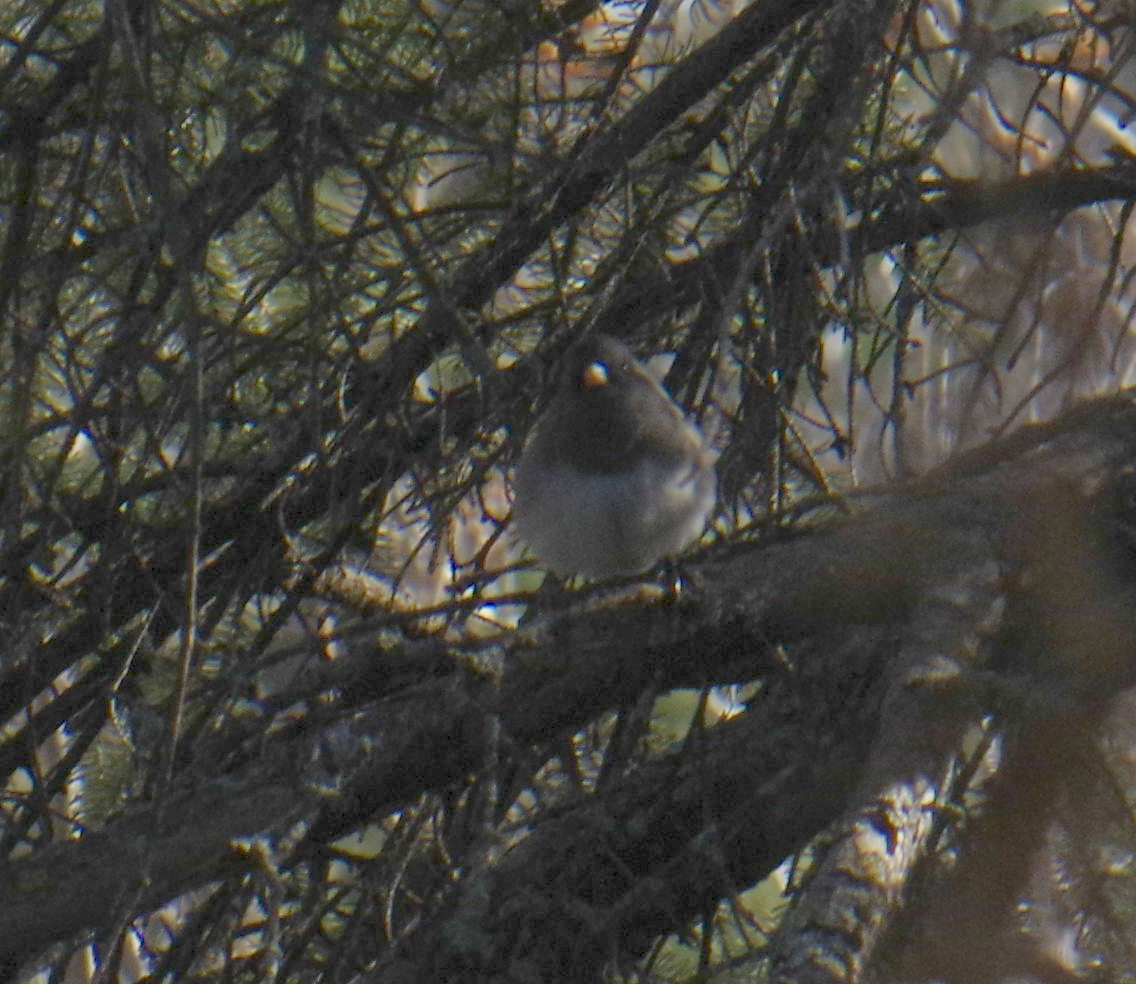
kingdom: Animalia
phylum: Chordata
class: Aves
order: Passeriformes
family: Passerellidae
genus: Junco
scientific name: Junco hyemalis
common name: Dark-eyed junco
